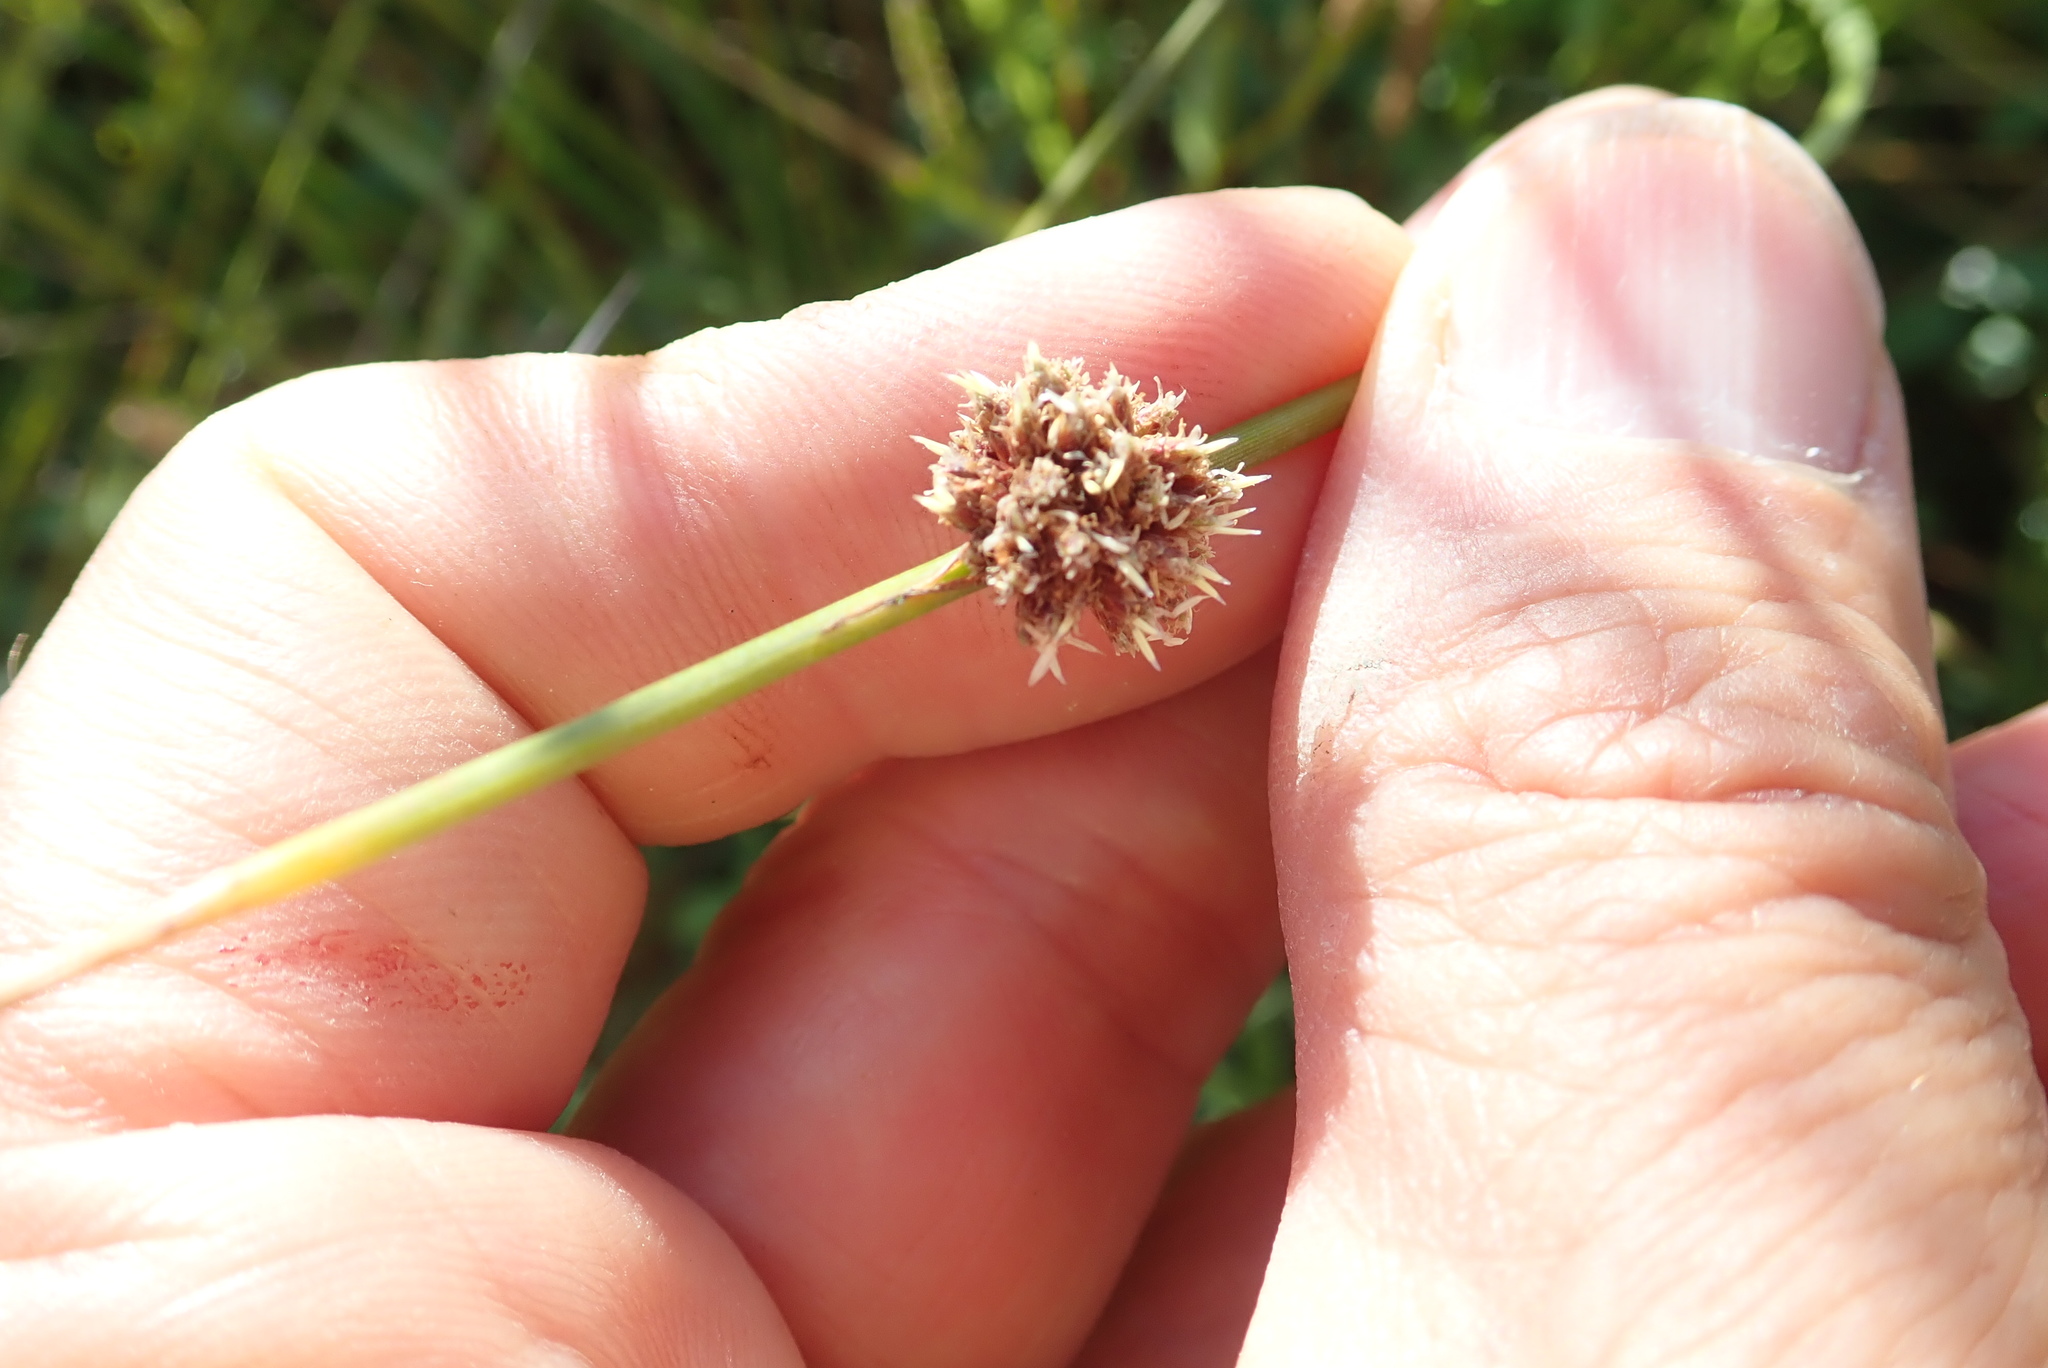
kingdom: Plantae
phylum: Tracheophyta
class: Liliopsida
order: Poales
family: Cyperaceae
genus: Ficinia
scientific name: Ficinia nodosa
